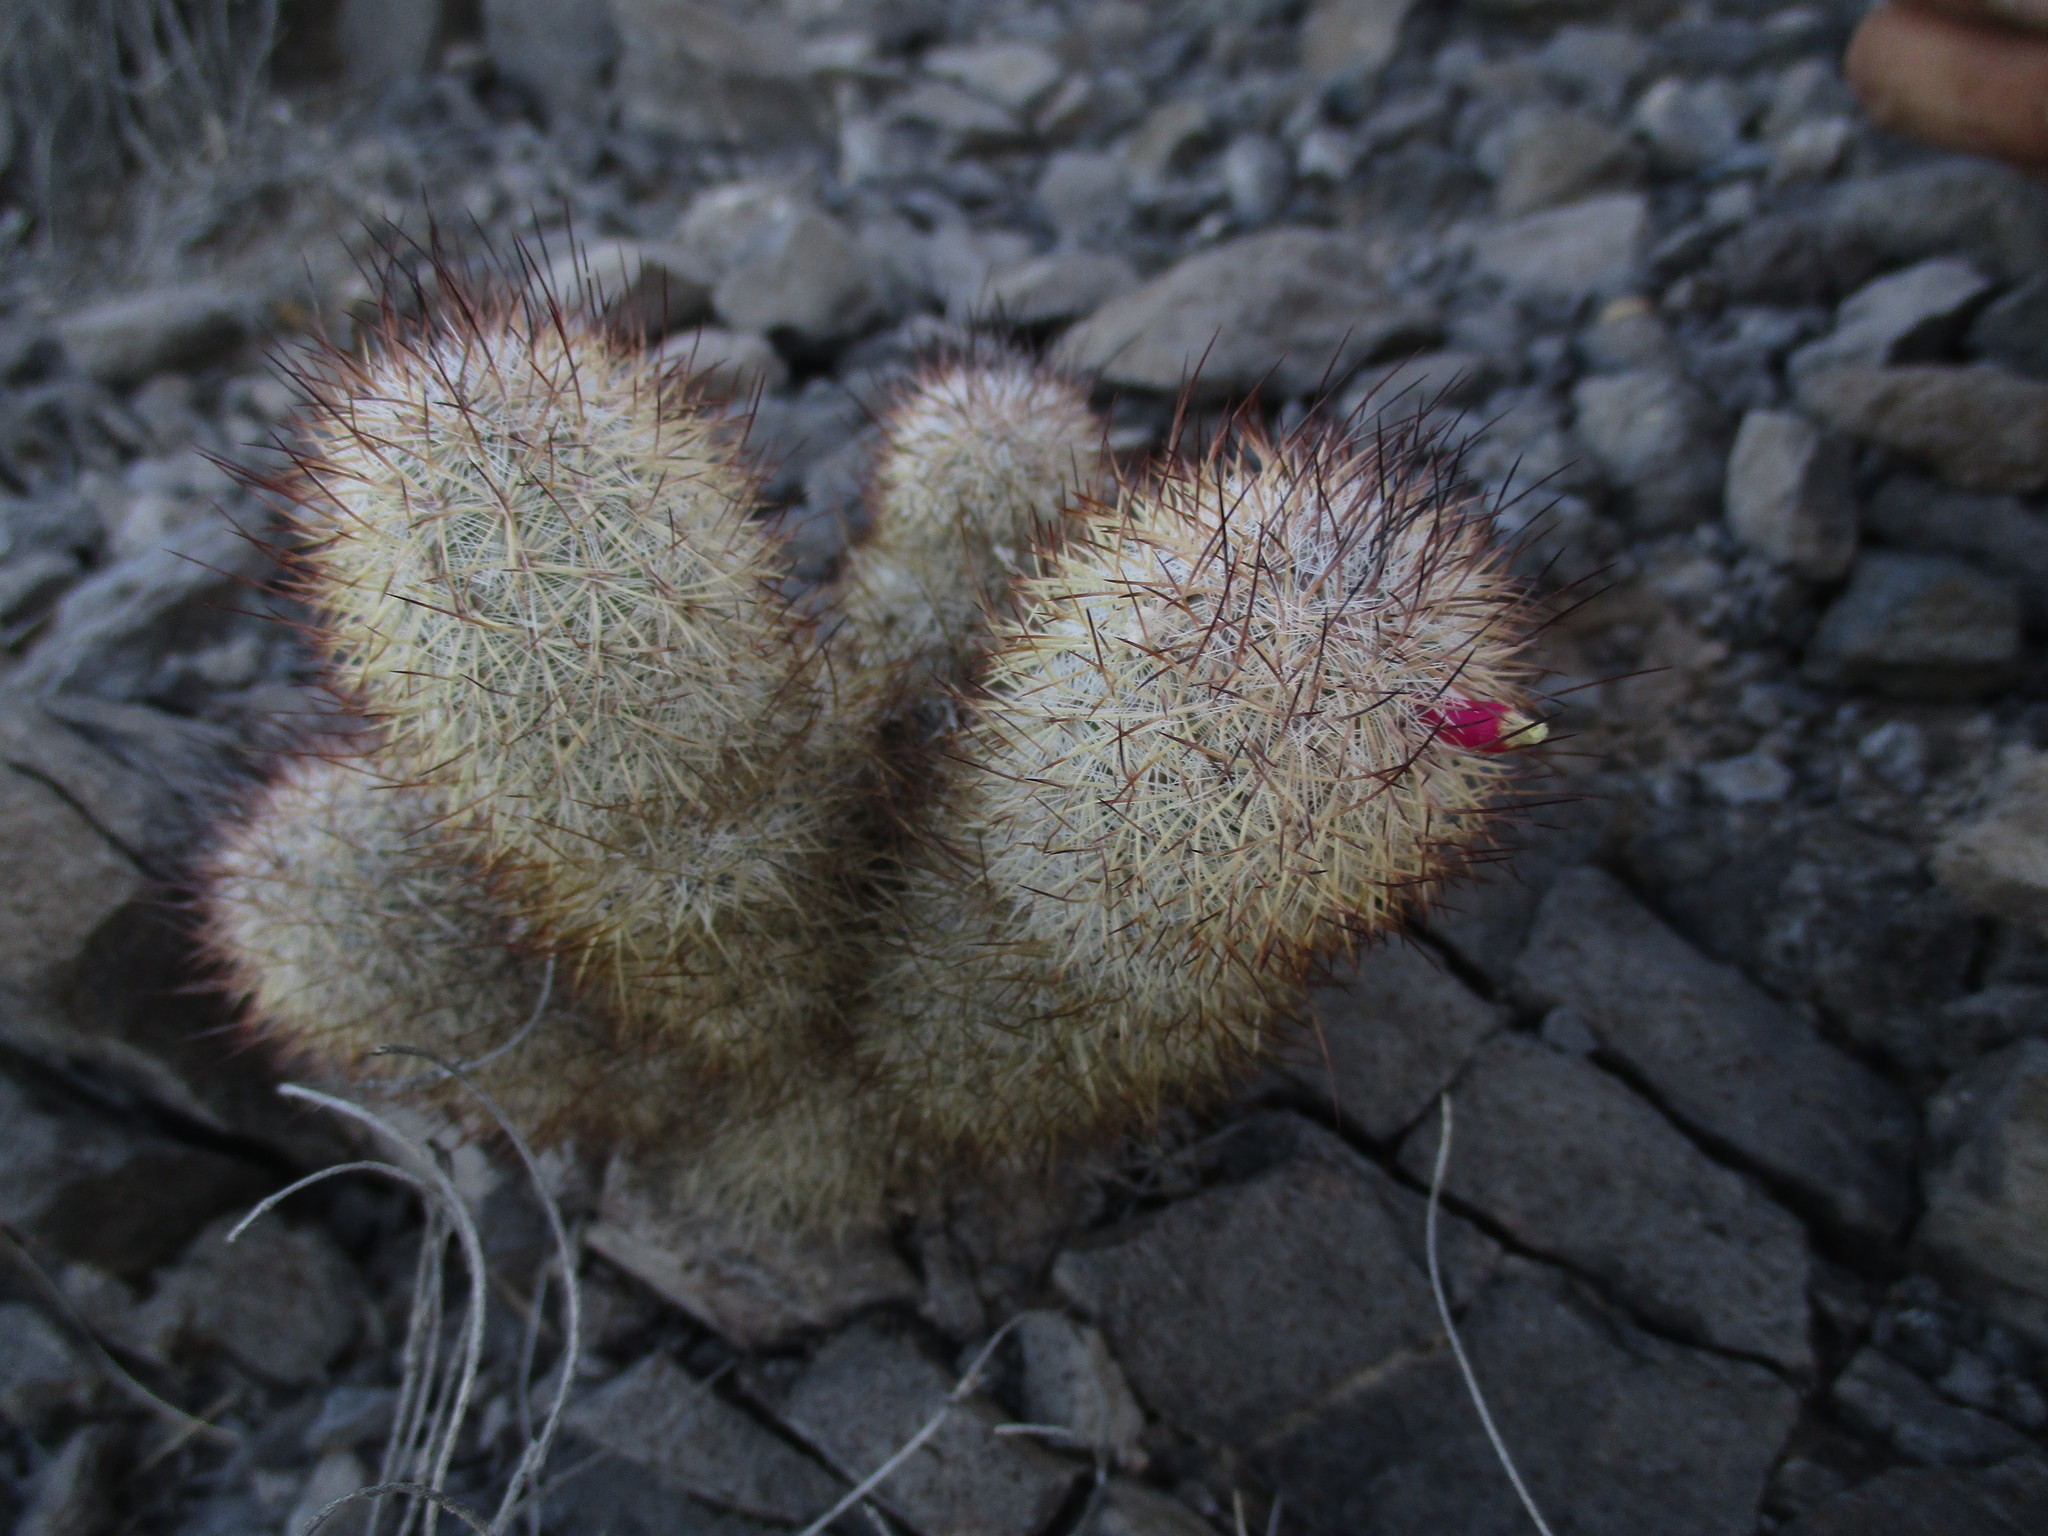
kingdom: Plantae
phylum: Tracheophyta
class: Magnoliopsida
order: Caryophyllales
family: Cactaceae
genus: Mammillaria
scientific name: Mammillaria pottsii
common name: Pott's nipple-cactus
